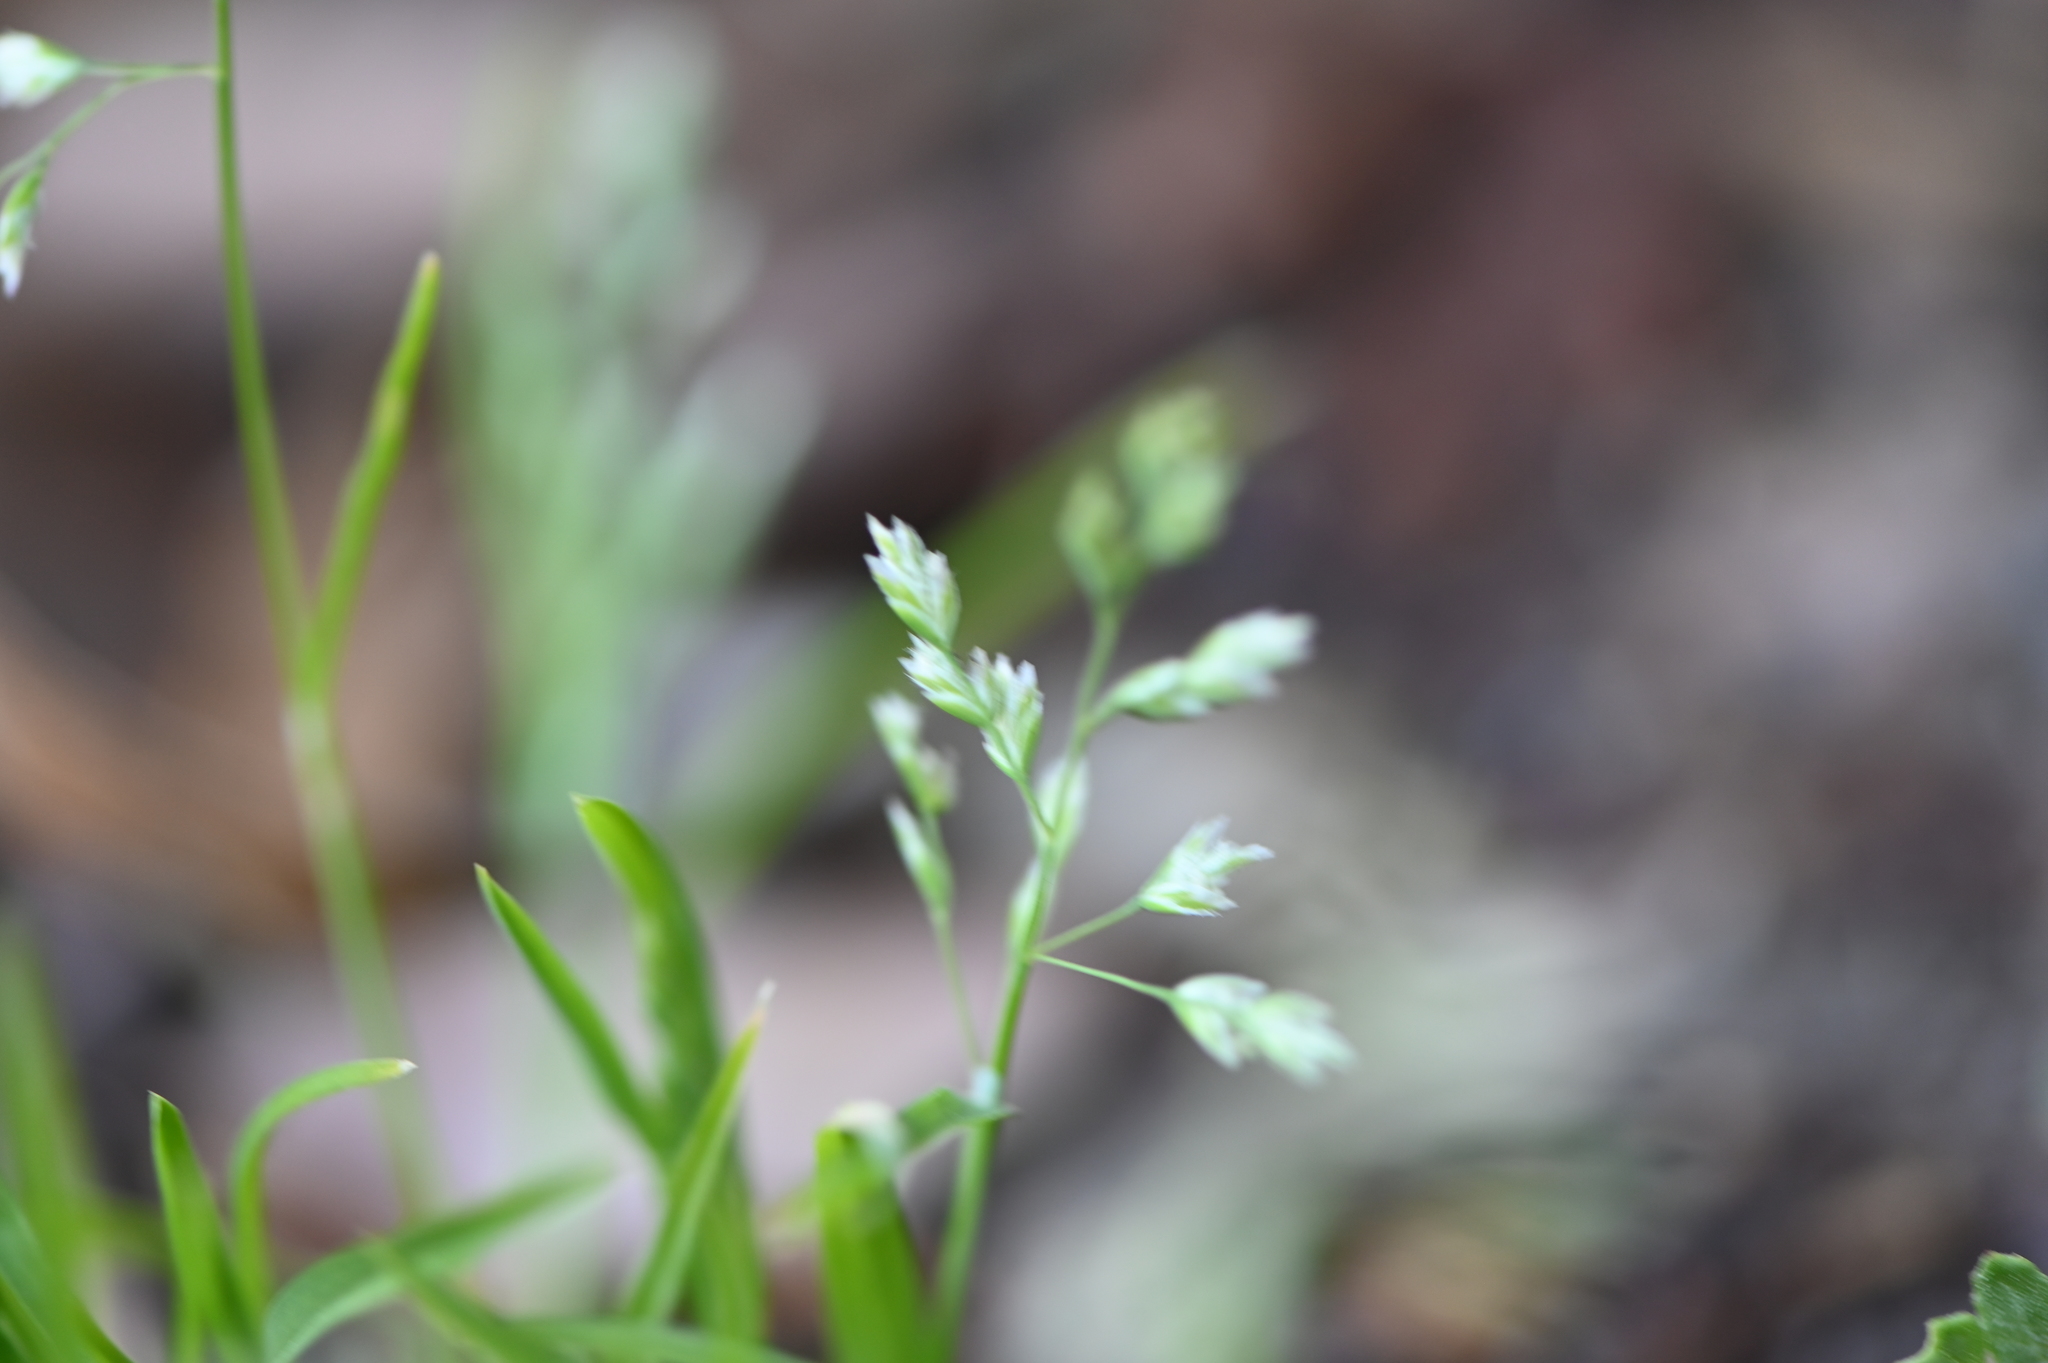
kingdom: Plantae
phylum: Tracheophyta
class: Liliopsida
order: Poales
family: Poaceae
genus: Poa
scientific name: Poa annua
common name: Annual bluegrass
